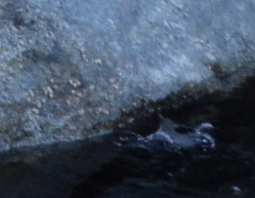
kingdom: Animalia
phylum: Chordata
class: Aves
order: Passeriformes
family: Cinclidae
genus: Cinclus
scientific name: Cinclus mexicanus
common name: American dipper
